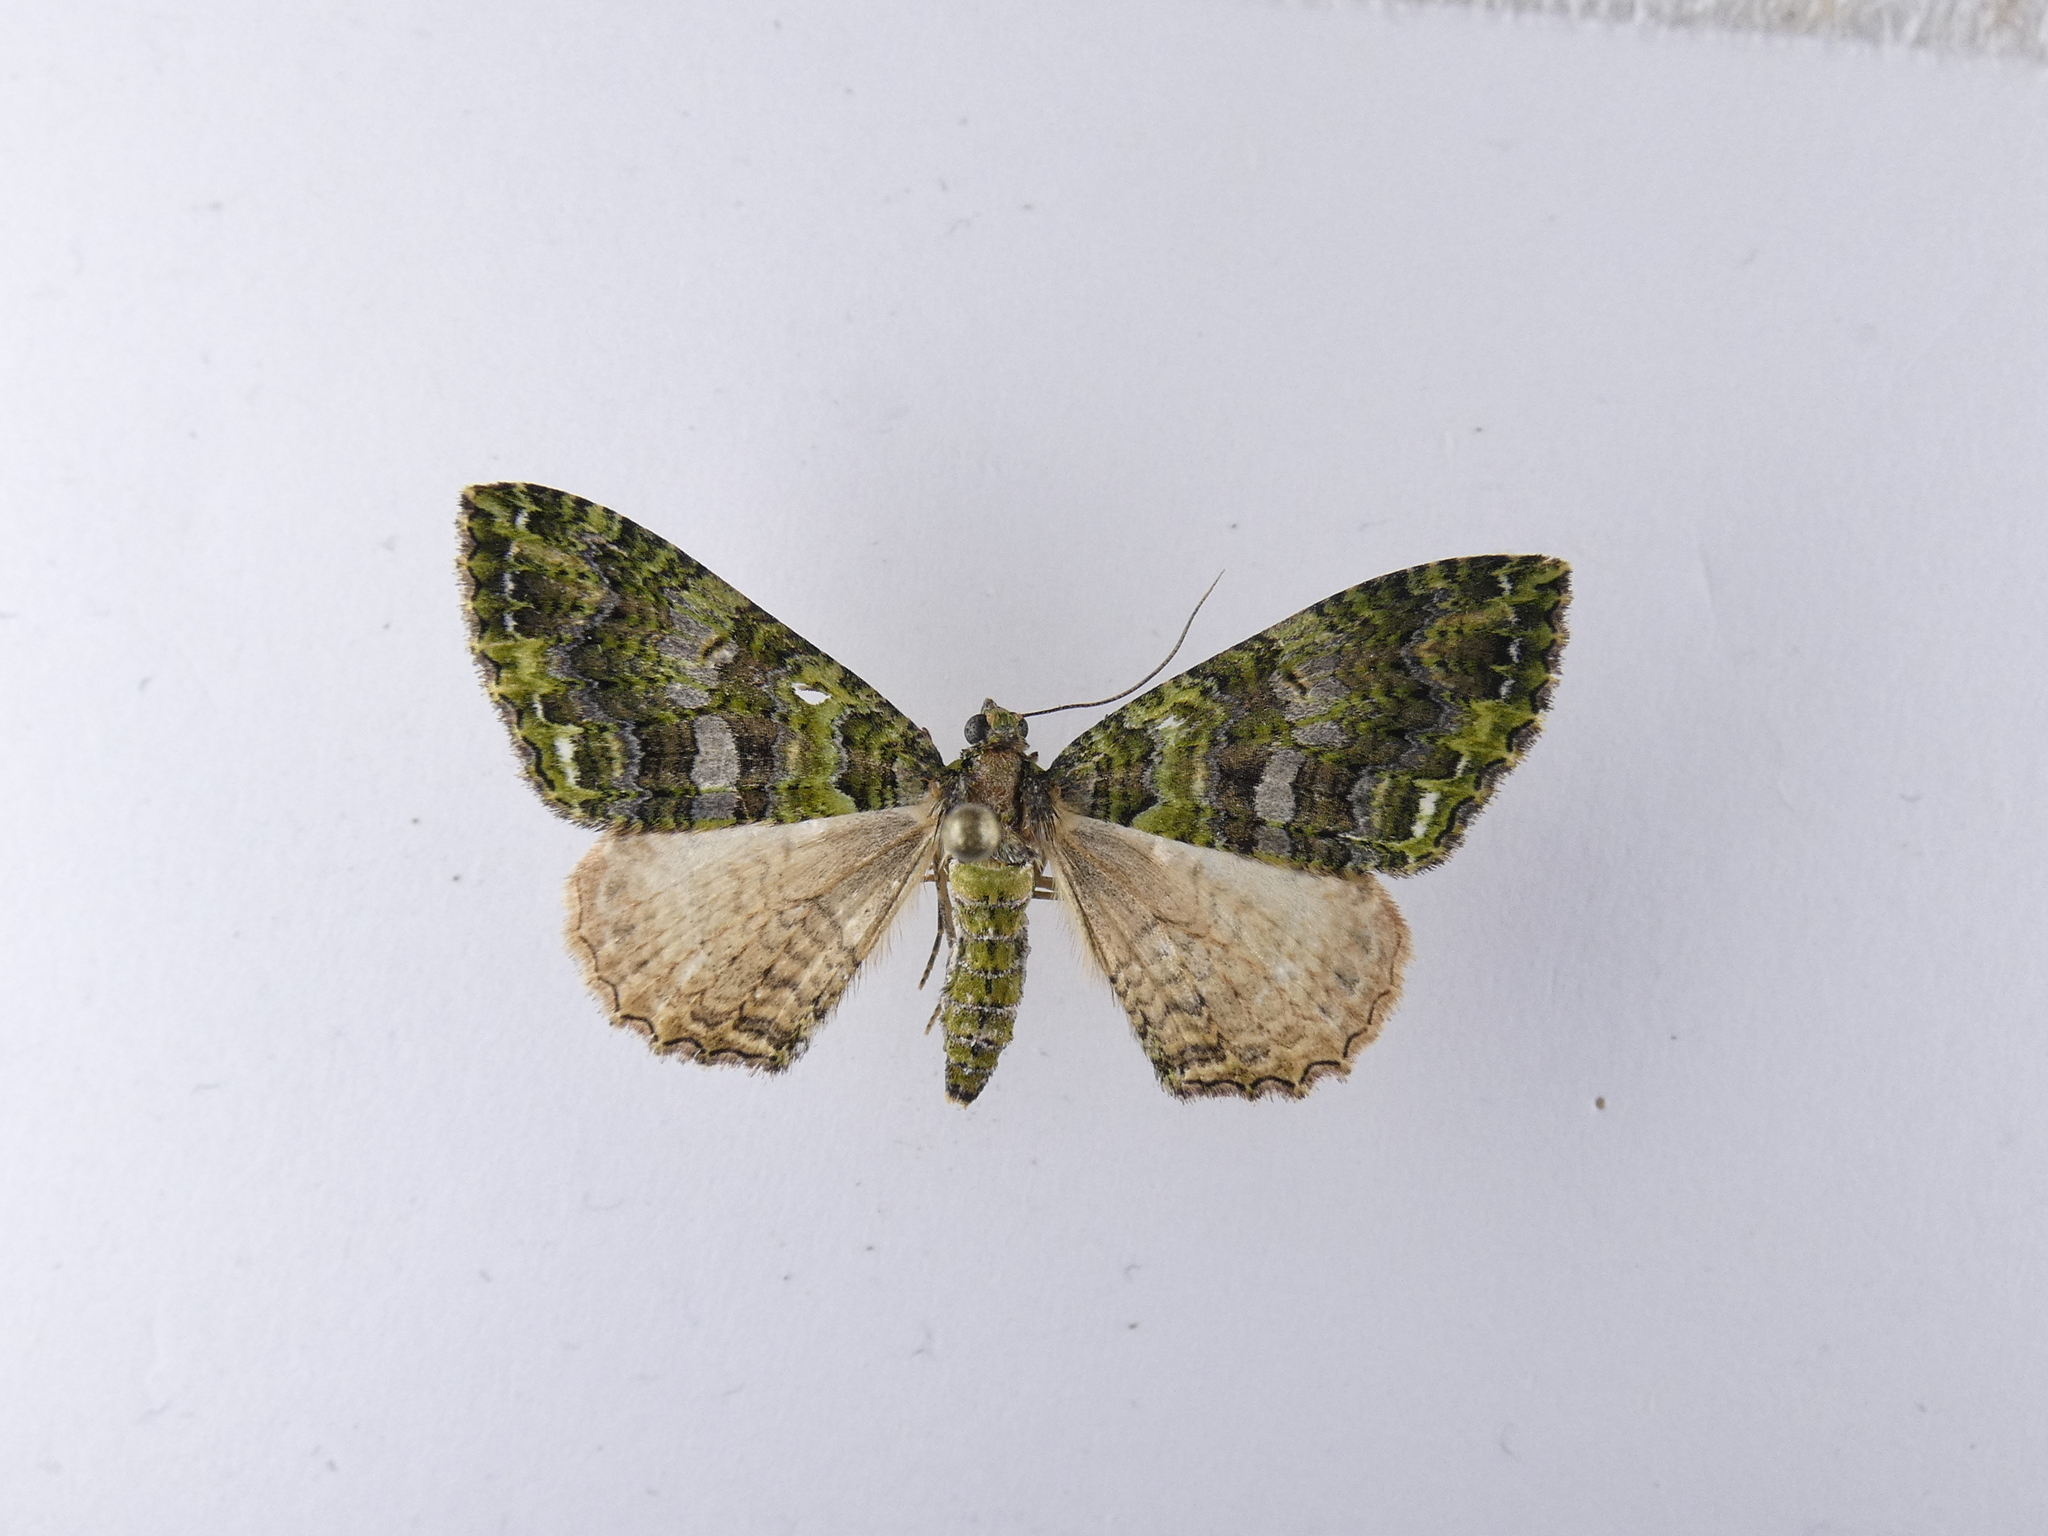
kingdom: Animalia
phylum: Arthropoda
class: Insecta
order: Lepidoptera
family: Geometridae
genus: Austrocidaria
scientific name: Austrocidaria similata
